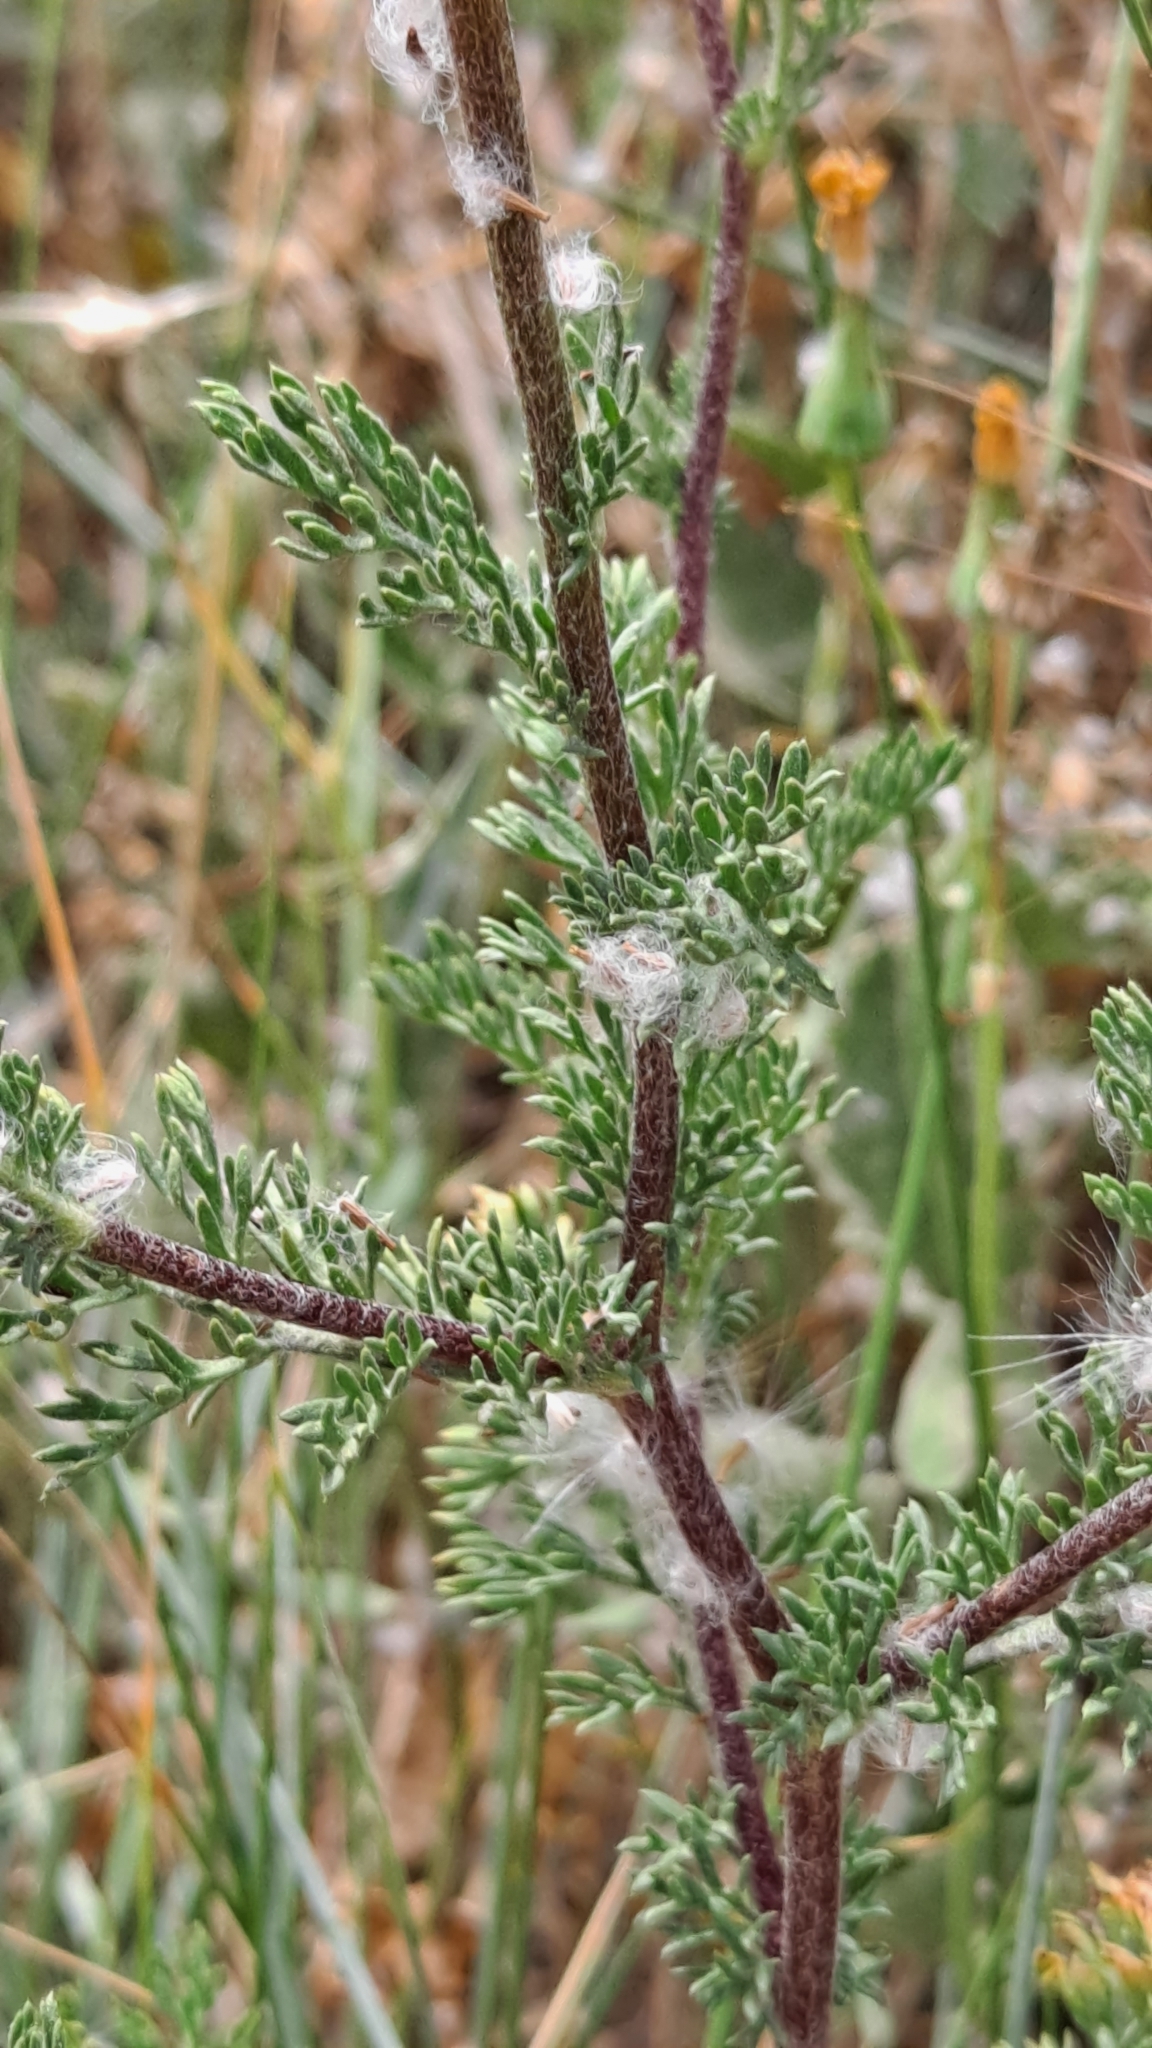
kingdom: Plantae
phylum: Tracheophyta
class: Magnoliopsida
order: Asterales
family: Asteraceae
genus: Anacyclus
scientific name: Anacyclus valentinus
